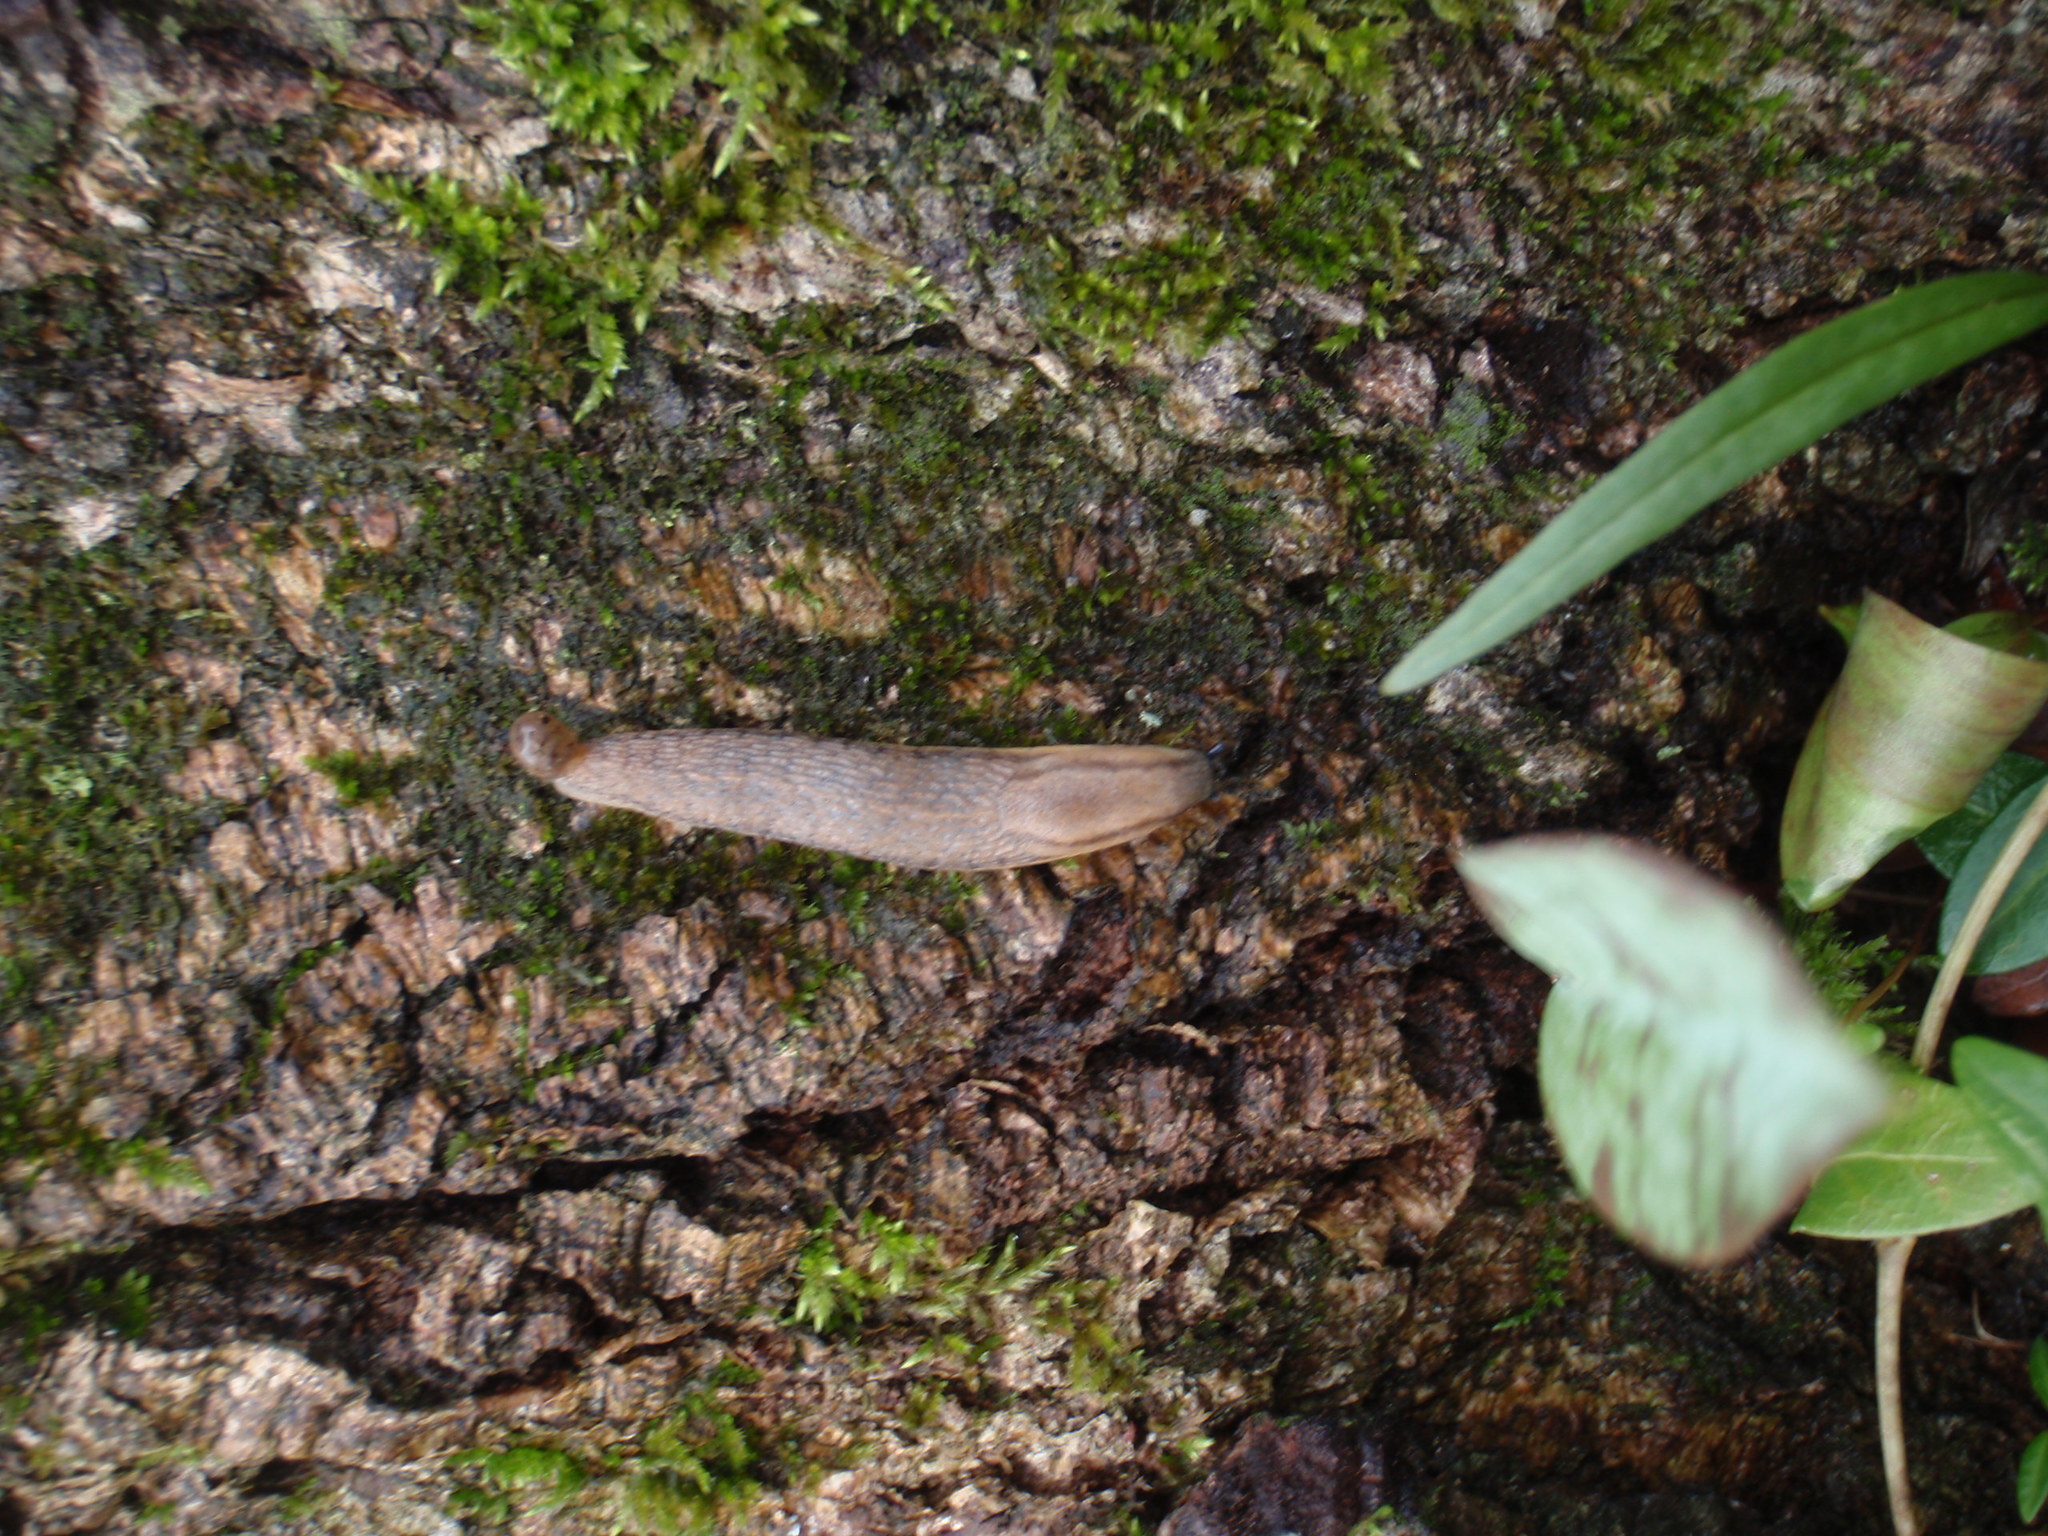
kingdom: Animalia
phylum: Mollusca
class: Gastropoda
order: Stylommatophora
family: Arionidae
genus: Arion
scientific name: Arion fasciatus
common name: Orange-banded arion
